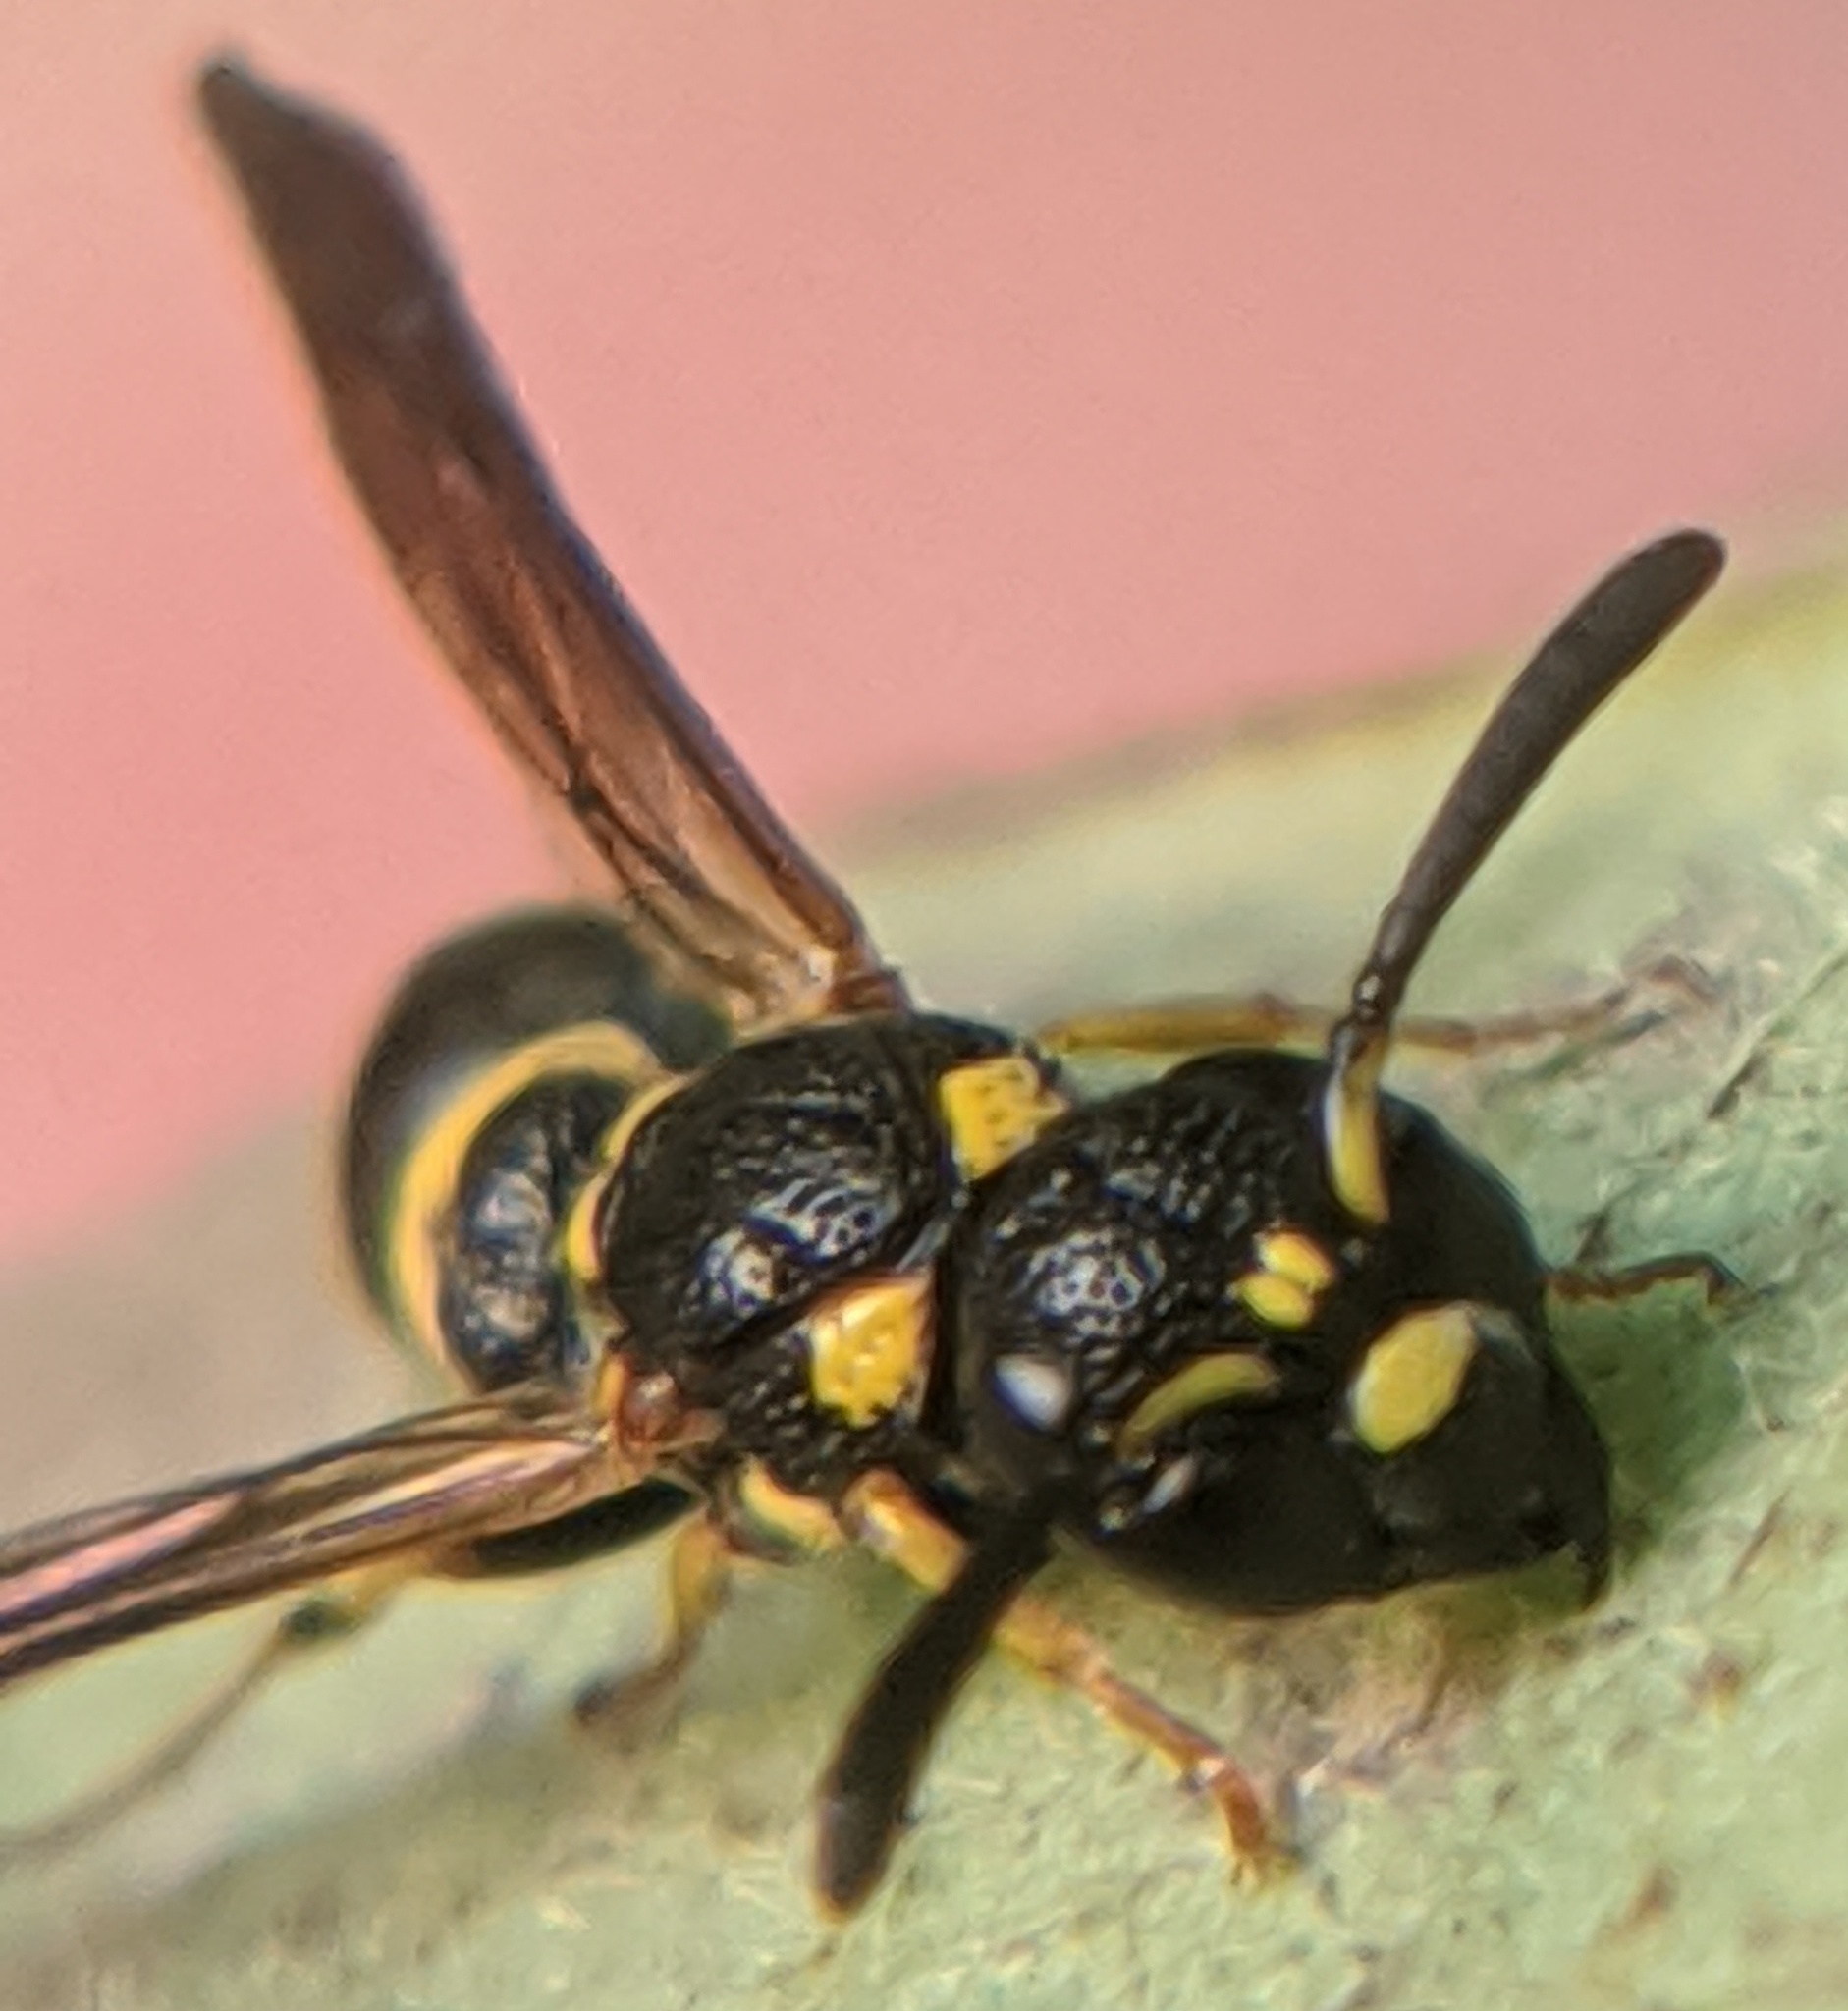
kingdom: Animalia
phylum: Arthropoda
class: Insecta
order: Hymenoptera
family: Eumenidae
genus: Symmorphus
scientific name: Symmorphus canadensis
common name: Canadian potter wasp
